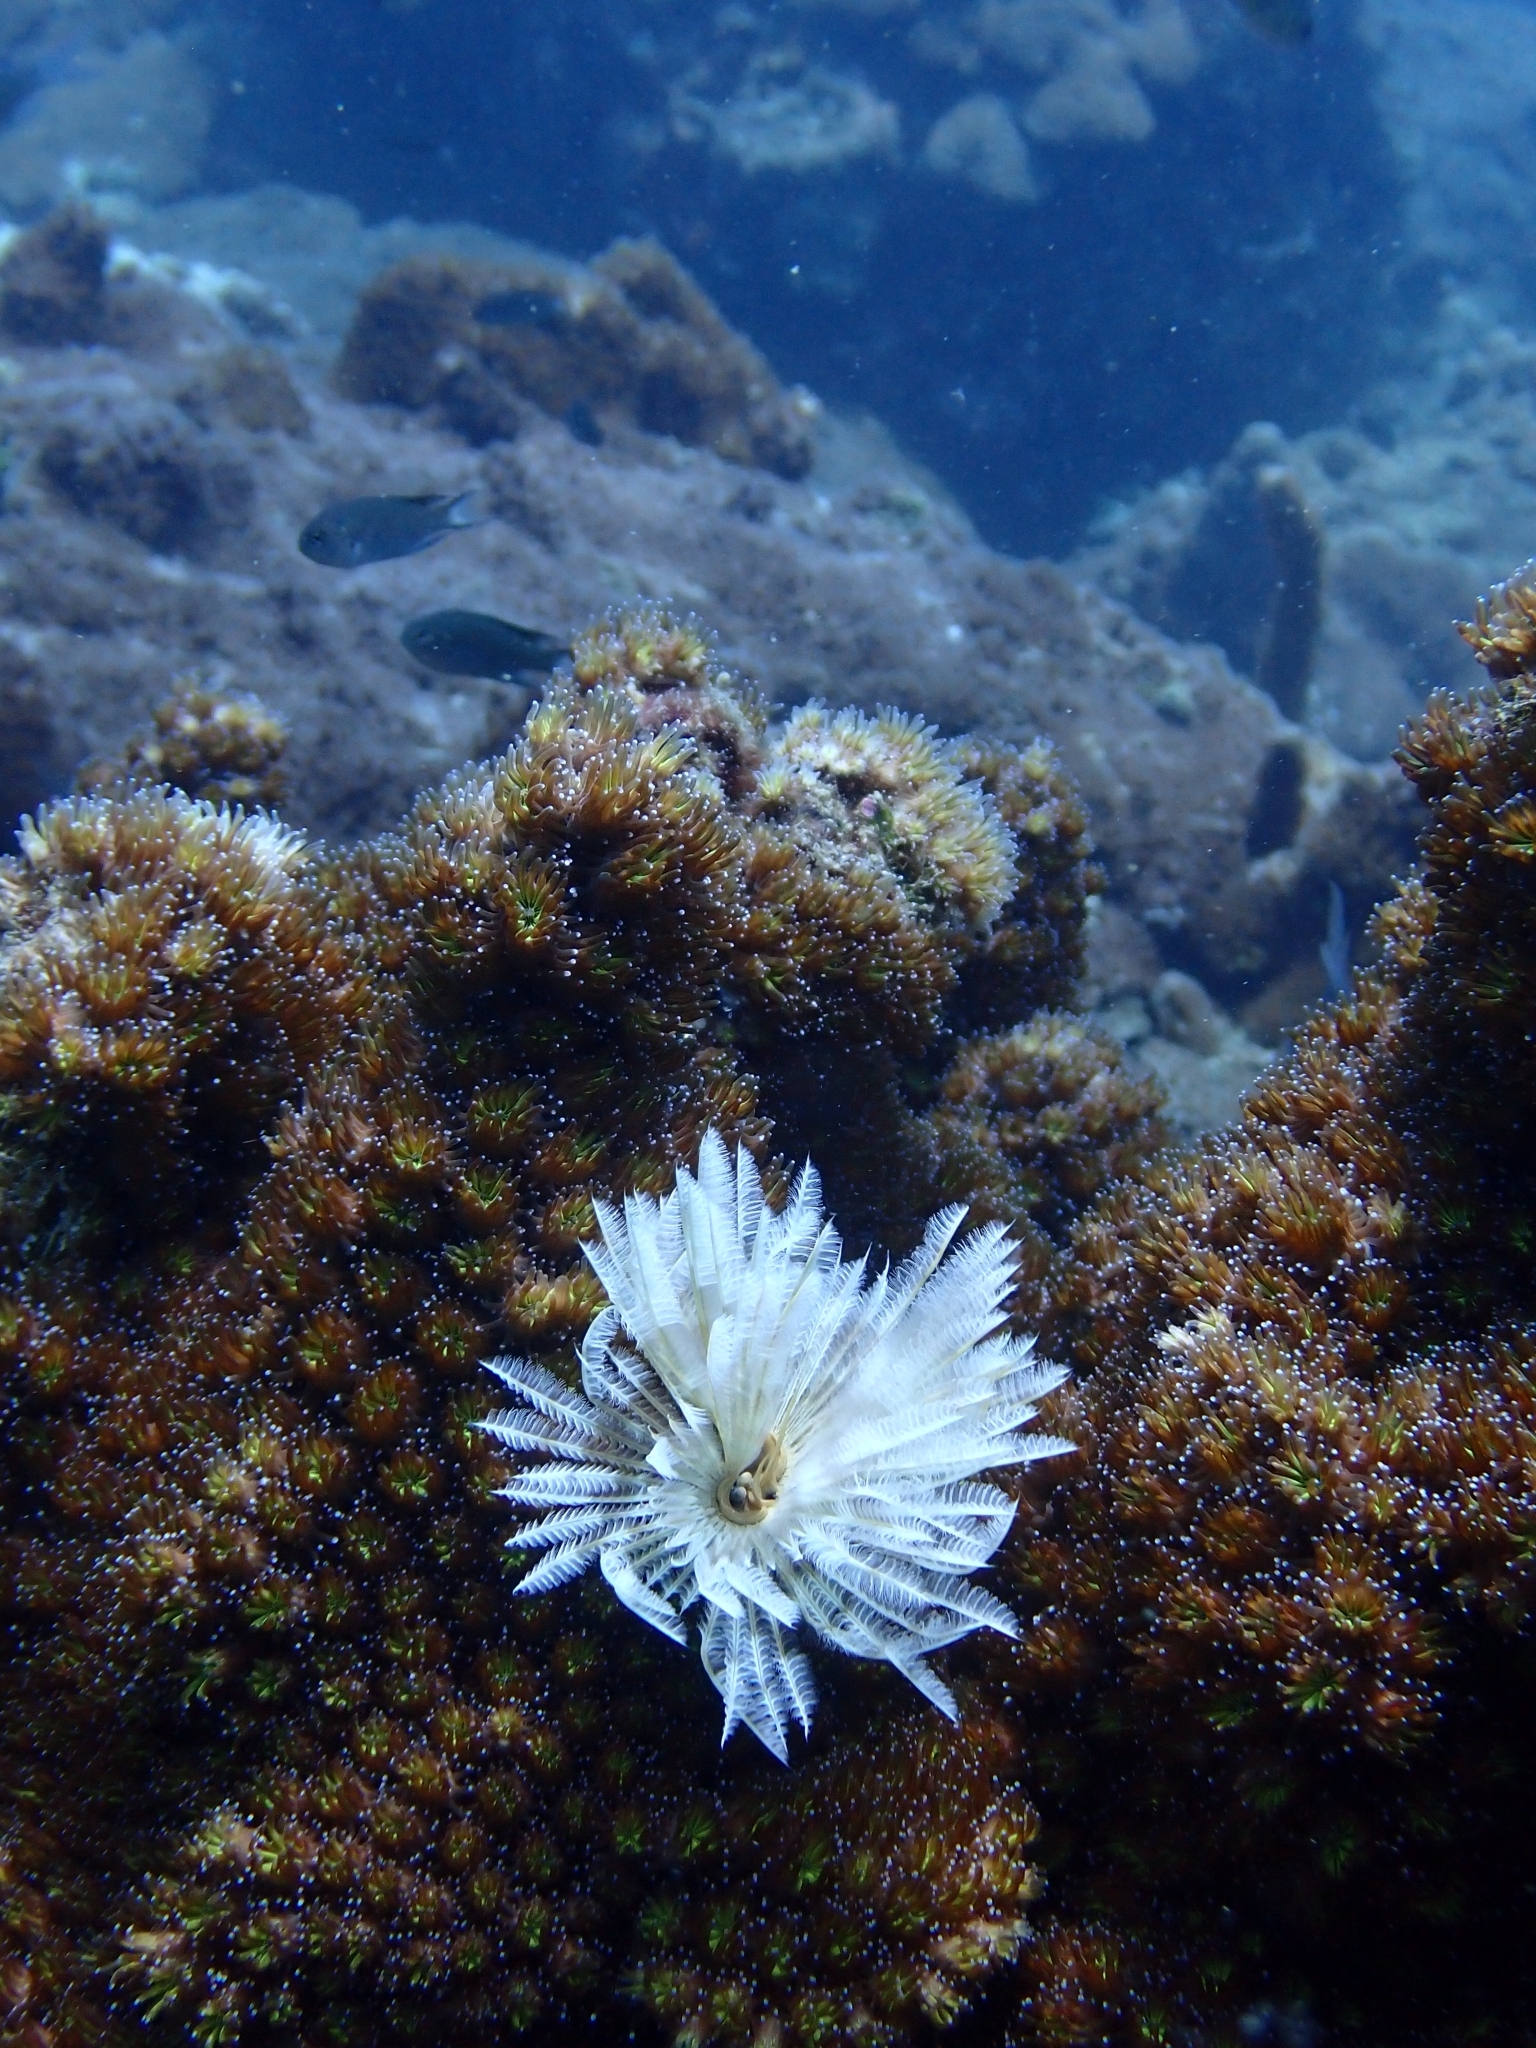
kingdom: Animalia
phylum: Annelida
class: Polychaeta
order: Sabellida
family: Sabellidae
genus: Sabellastarte
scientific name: Sabellastarte magnifica
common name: Giant feather-duster worm
